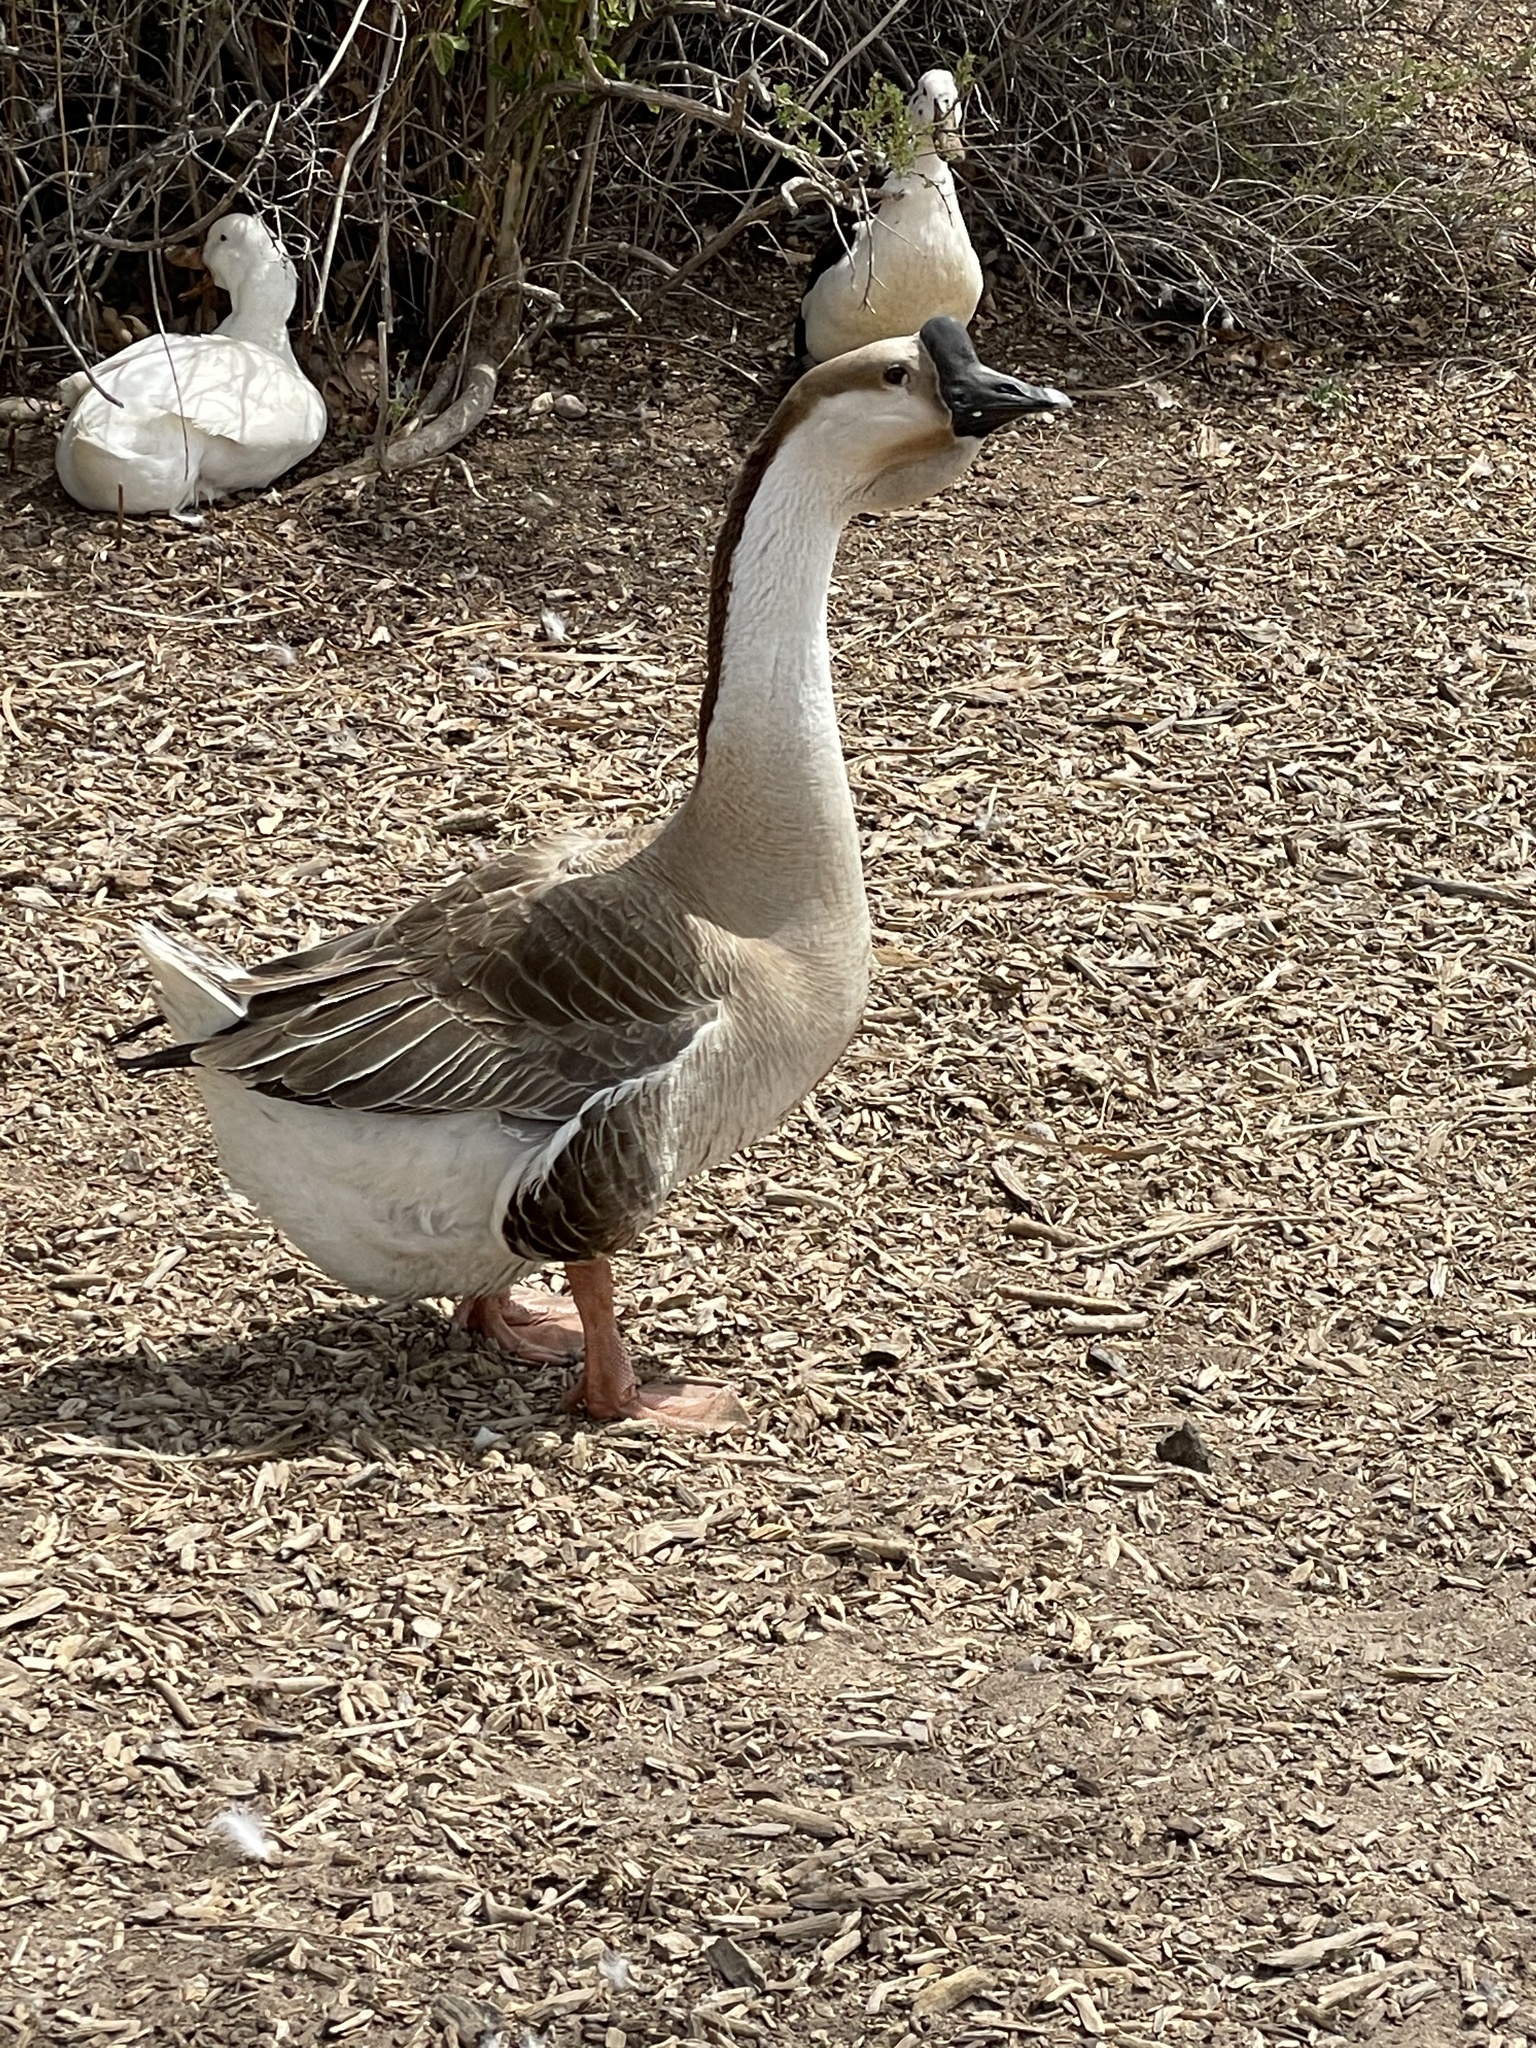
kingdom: Animalia
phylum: Chordata
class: Aves
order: Anseriformes
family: Anatidae
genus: Anser
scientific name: Anser cygnoides
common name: Swan goose
